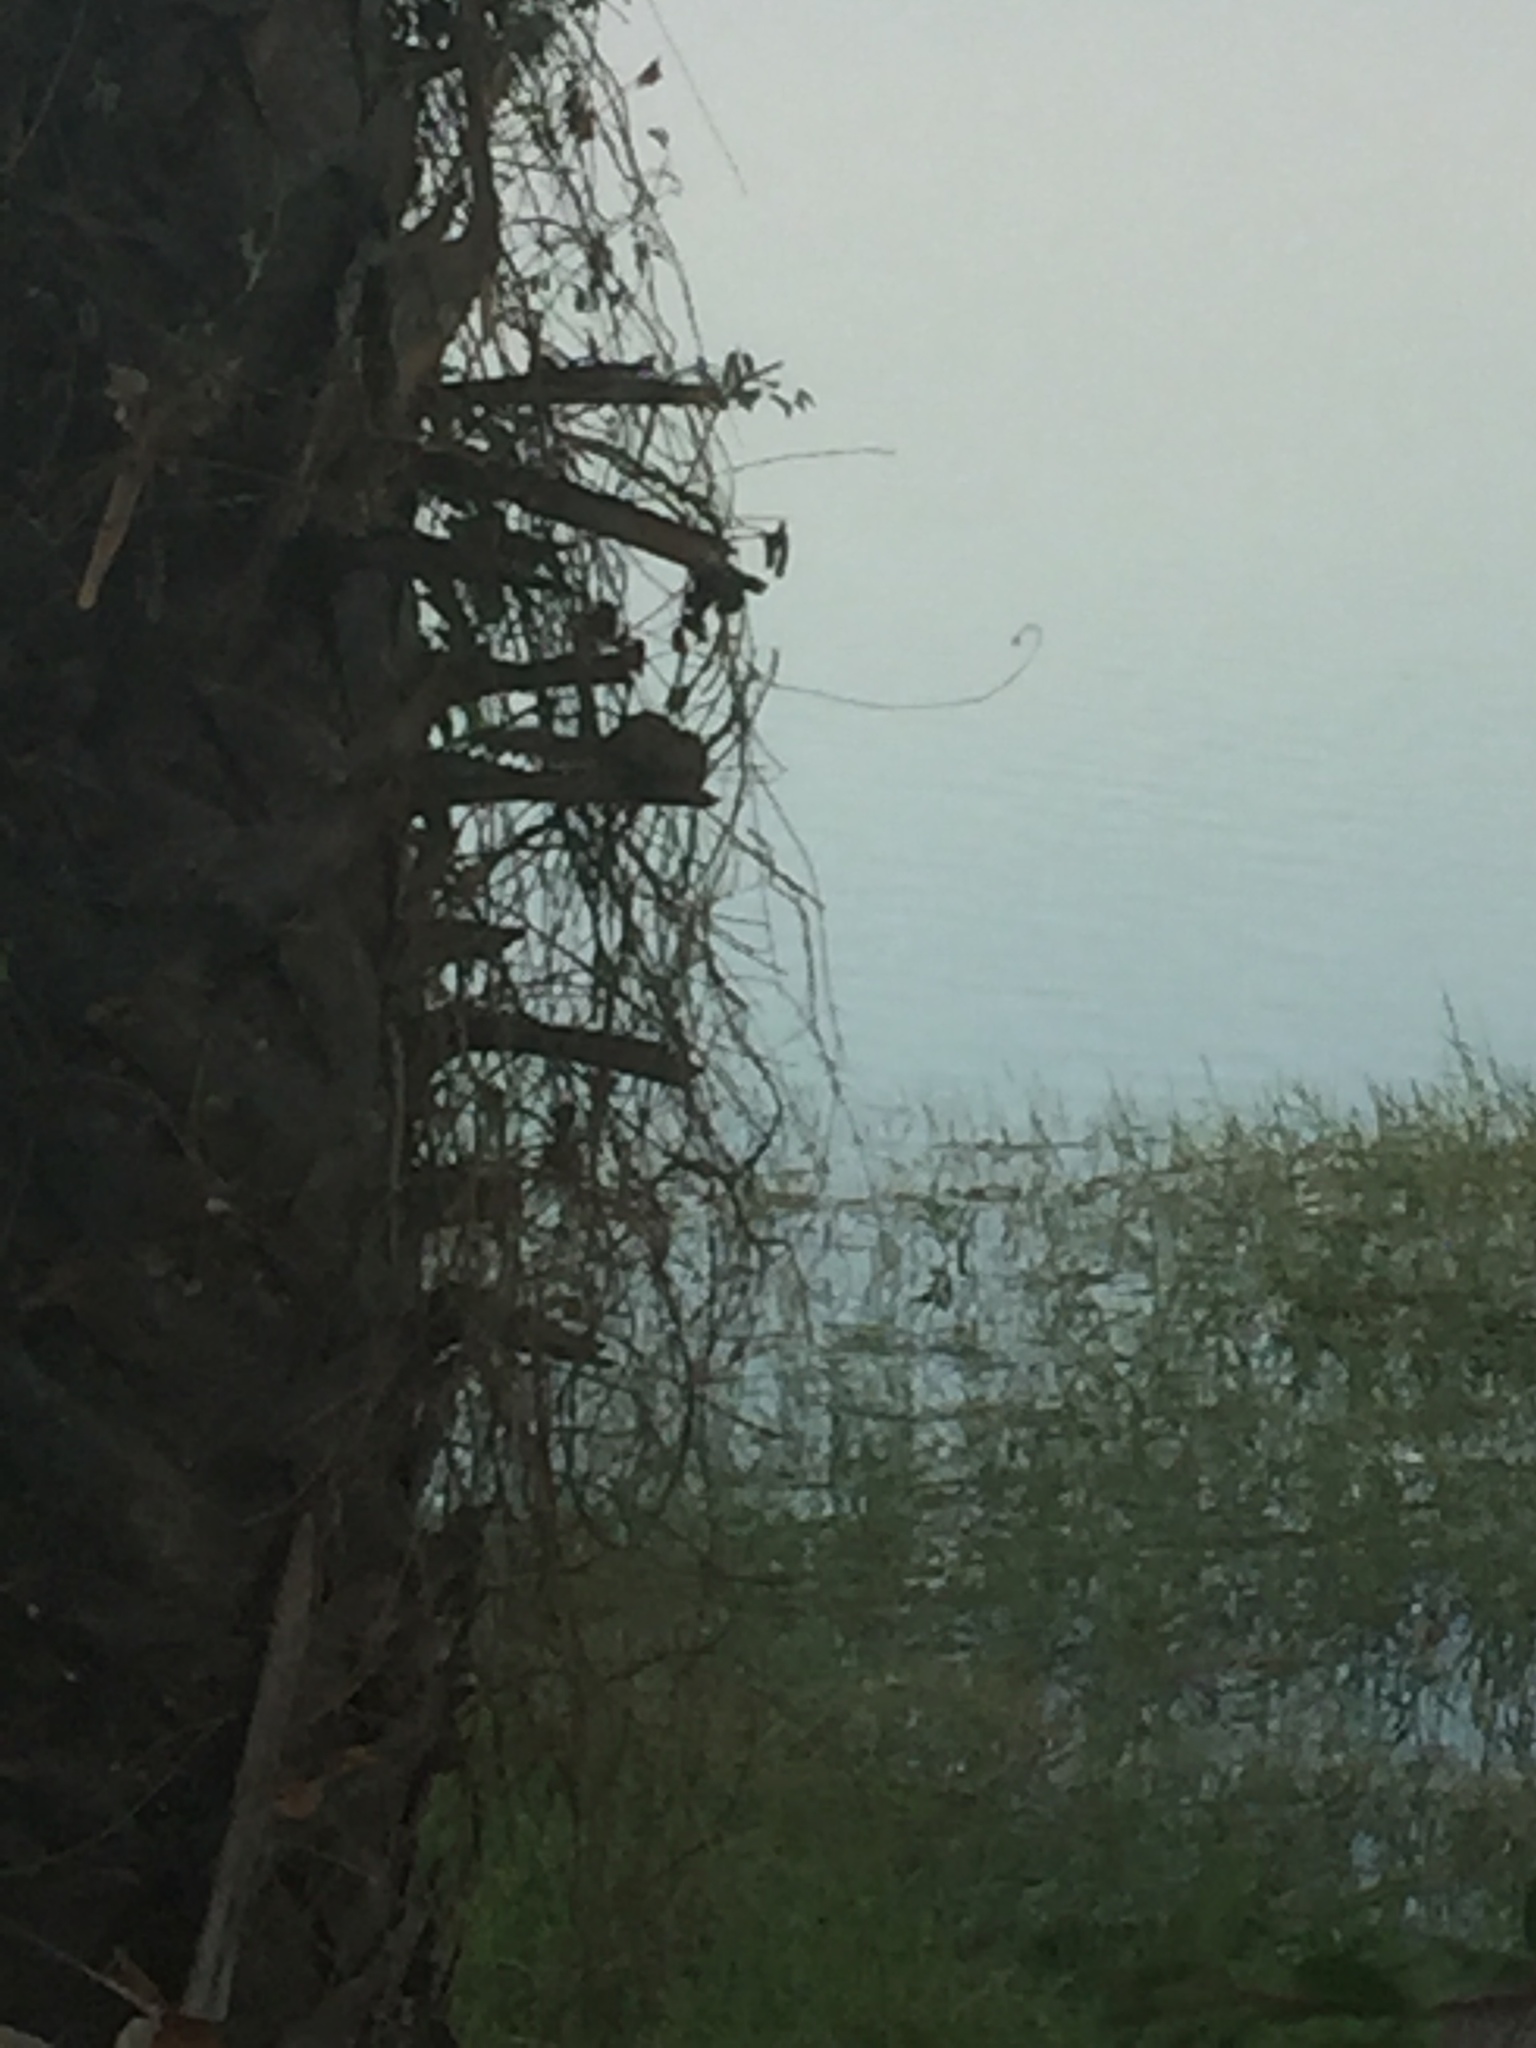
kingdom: Animalia
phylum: Chordata
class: Mammalia
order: Rodentia
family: Sciuridae
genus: Funambulus
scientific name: Funambulus palmarum
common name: Indian palm squirrel
